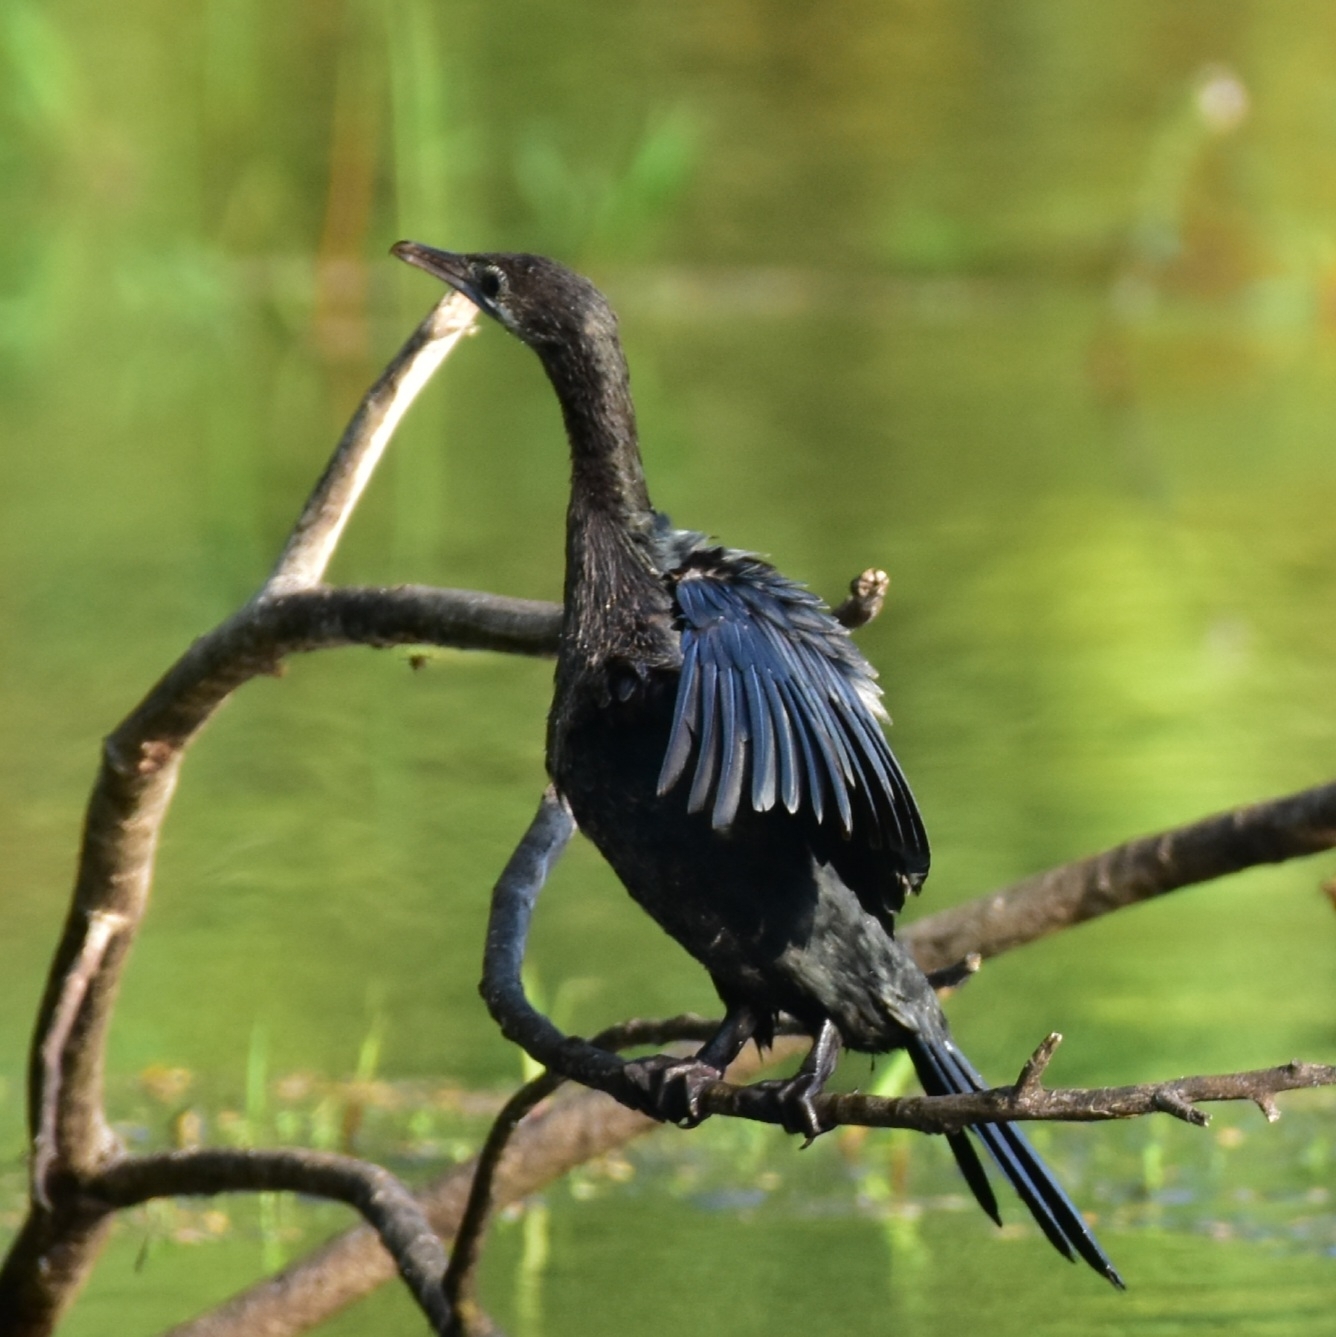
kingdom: Animalia
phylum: Chordata
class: Aves
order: Suliformes
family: Phalacrocoracidae
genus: Microcarbo
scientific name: Microcarbo niger
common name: Little cormorant
